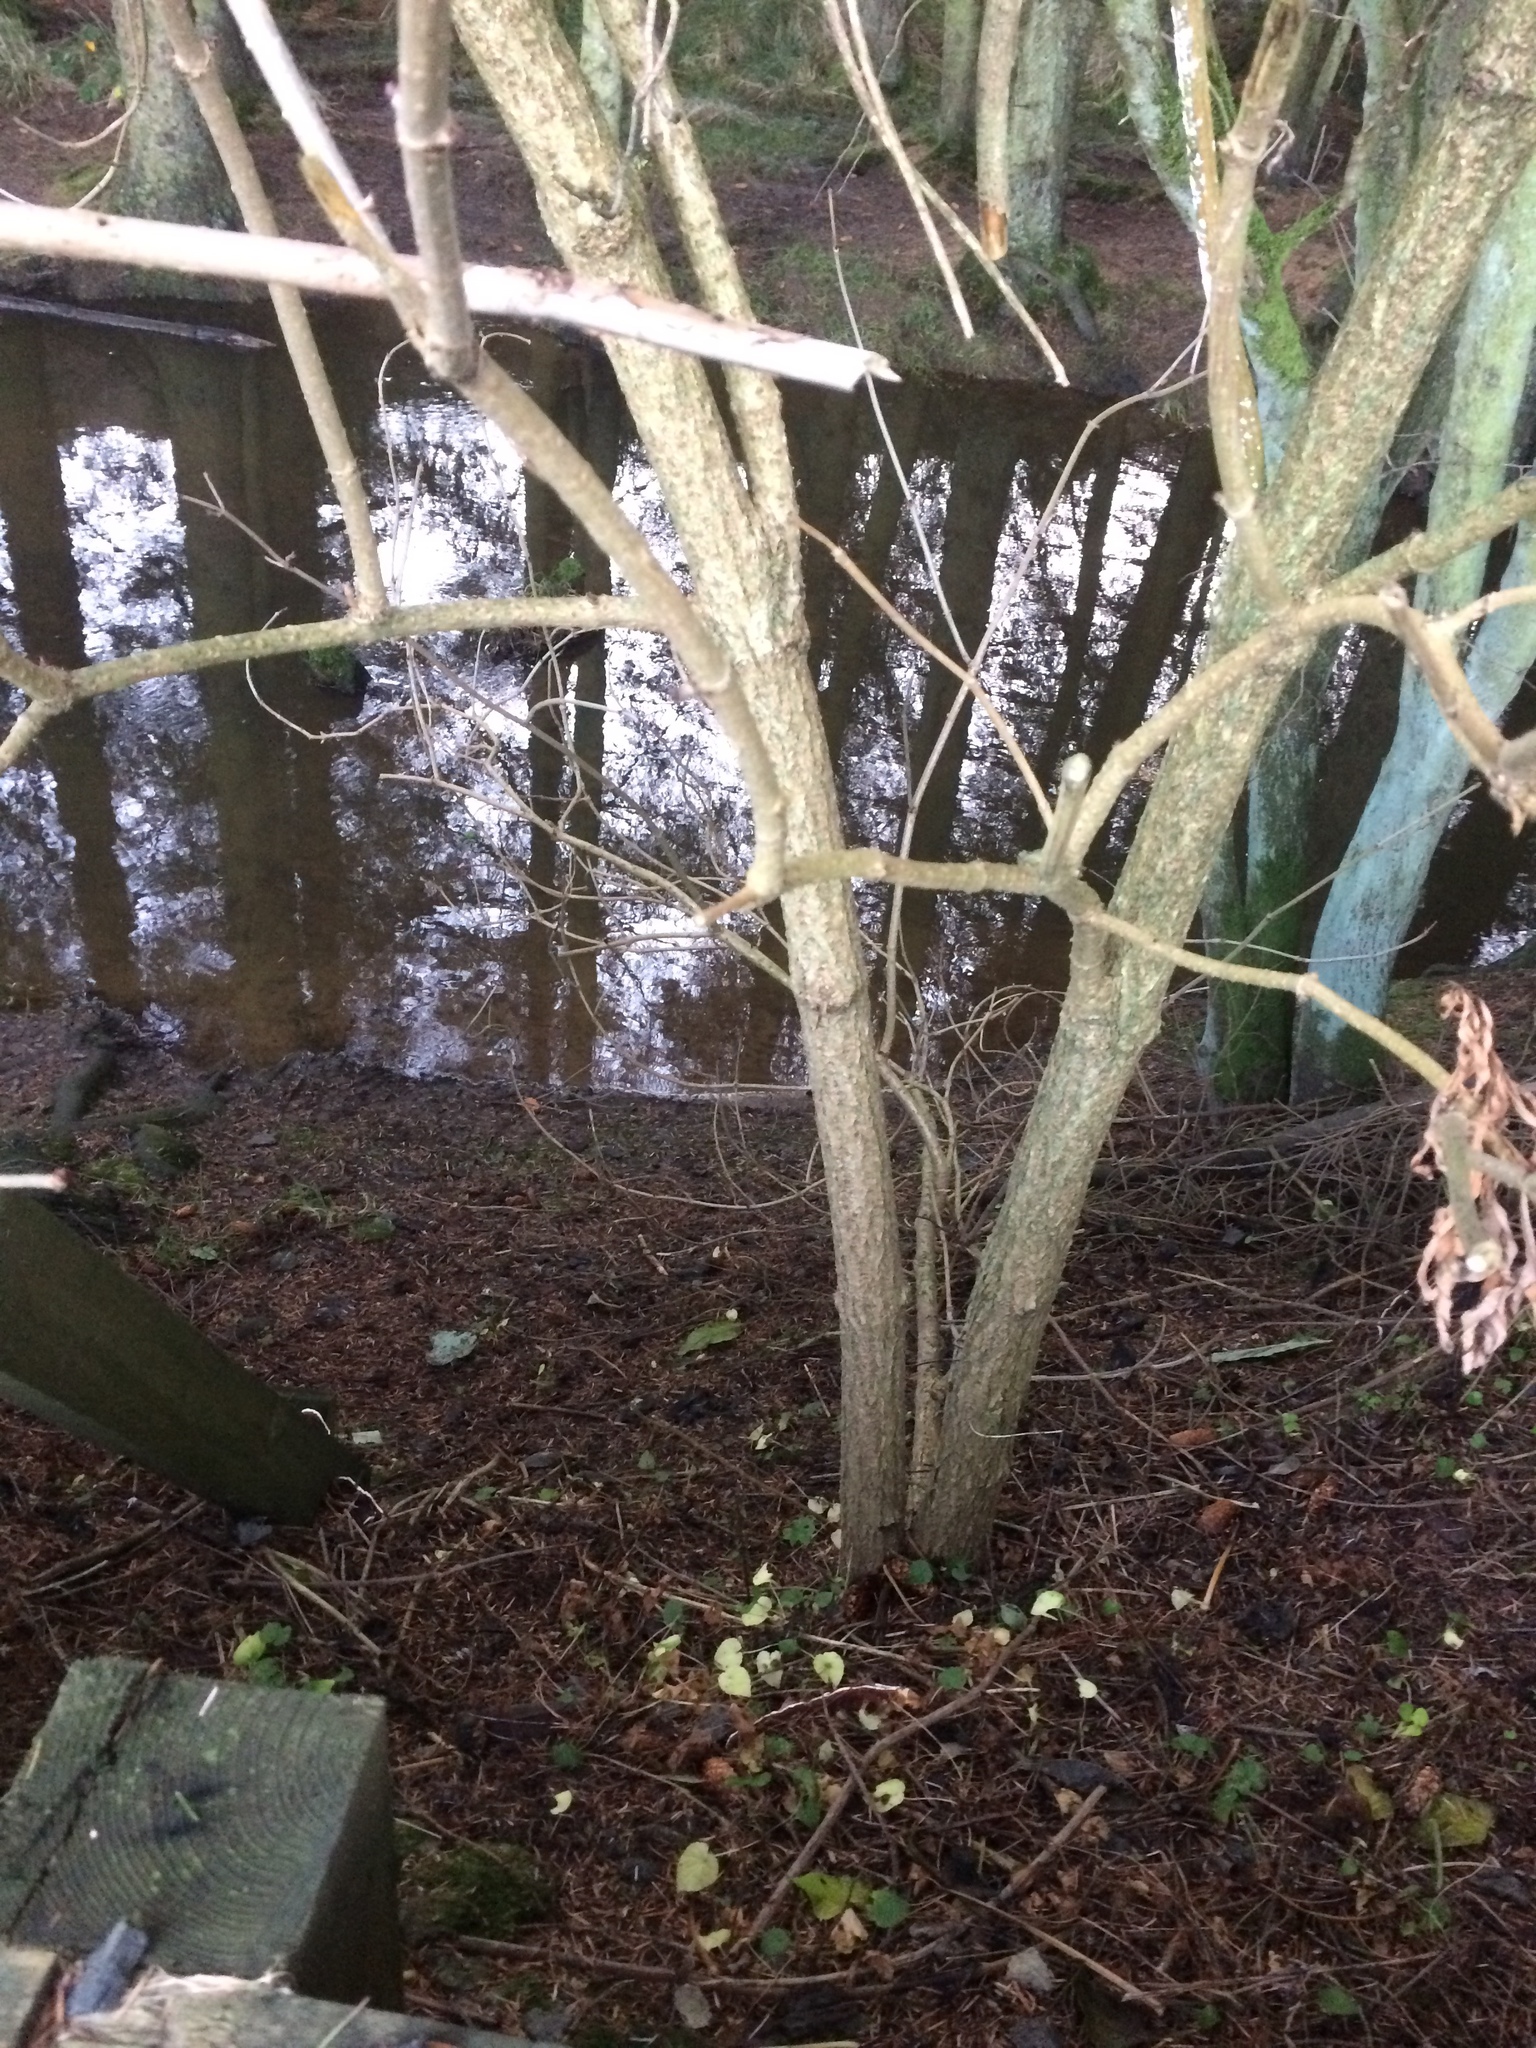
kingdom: Plantae
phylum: Tracheophyta
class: Magnoliopsida
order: Dipsacales
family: Viburnaceae
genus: Sambucus
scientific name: Sambucus nigra
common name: Elder
